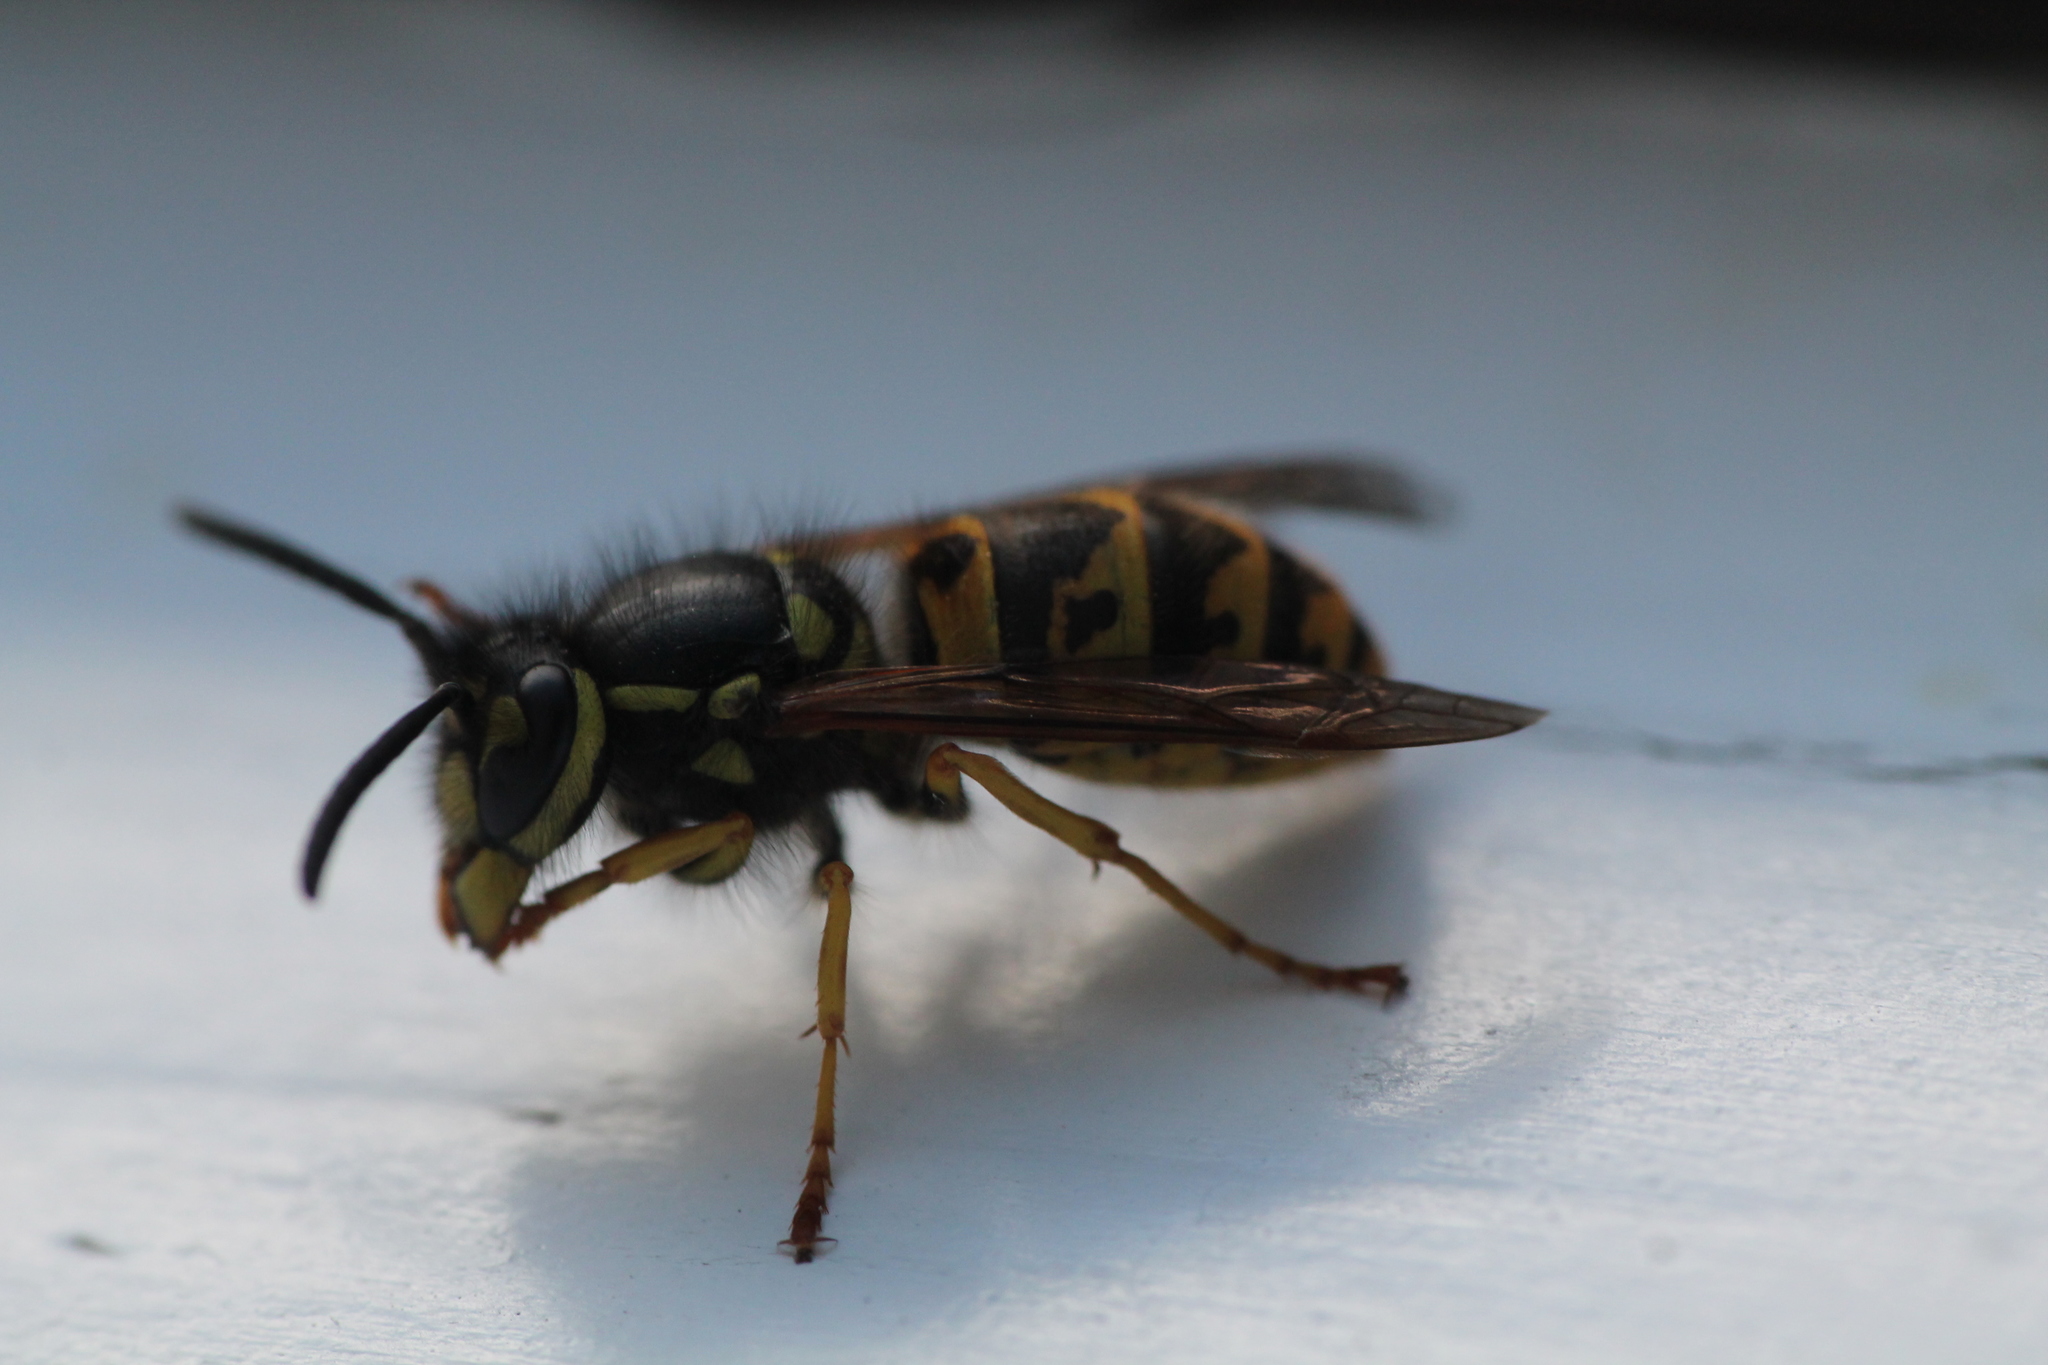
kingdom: Animalia
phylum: Arthropoda
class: Insecta
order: Hymenoptera
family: Vespidae
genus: Vespula
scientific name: Vespula germanica
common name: German wasp
